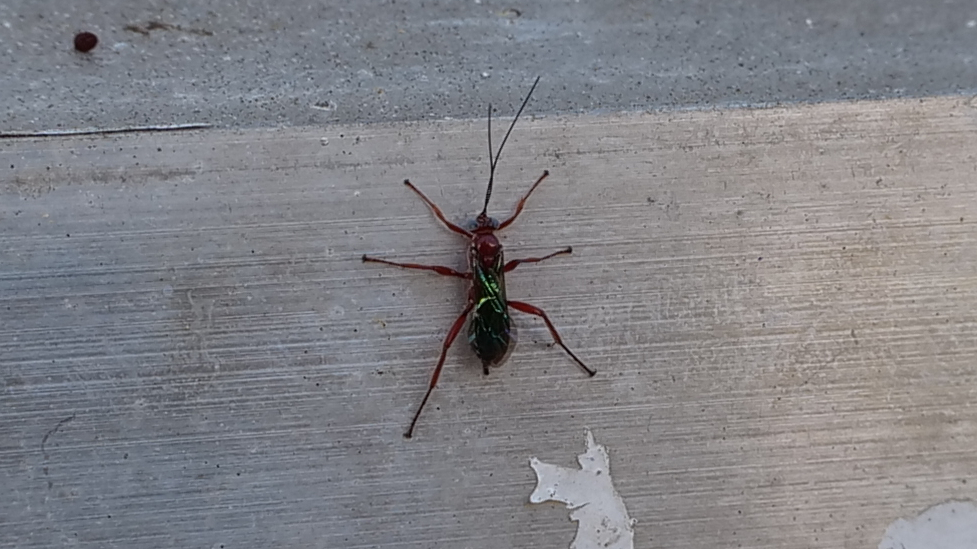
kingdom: Animalia
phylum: Arthropoda
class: Insecta
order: Hymenoptera
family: Ichneumonidae
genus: Pimpla
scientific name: Pimpla marginella
